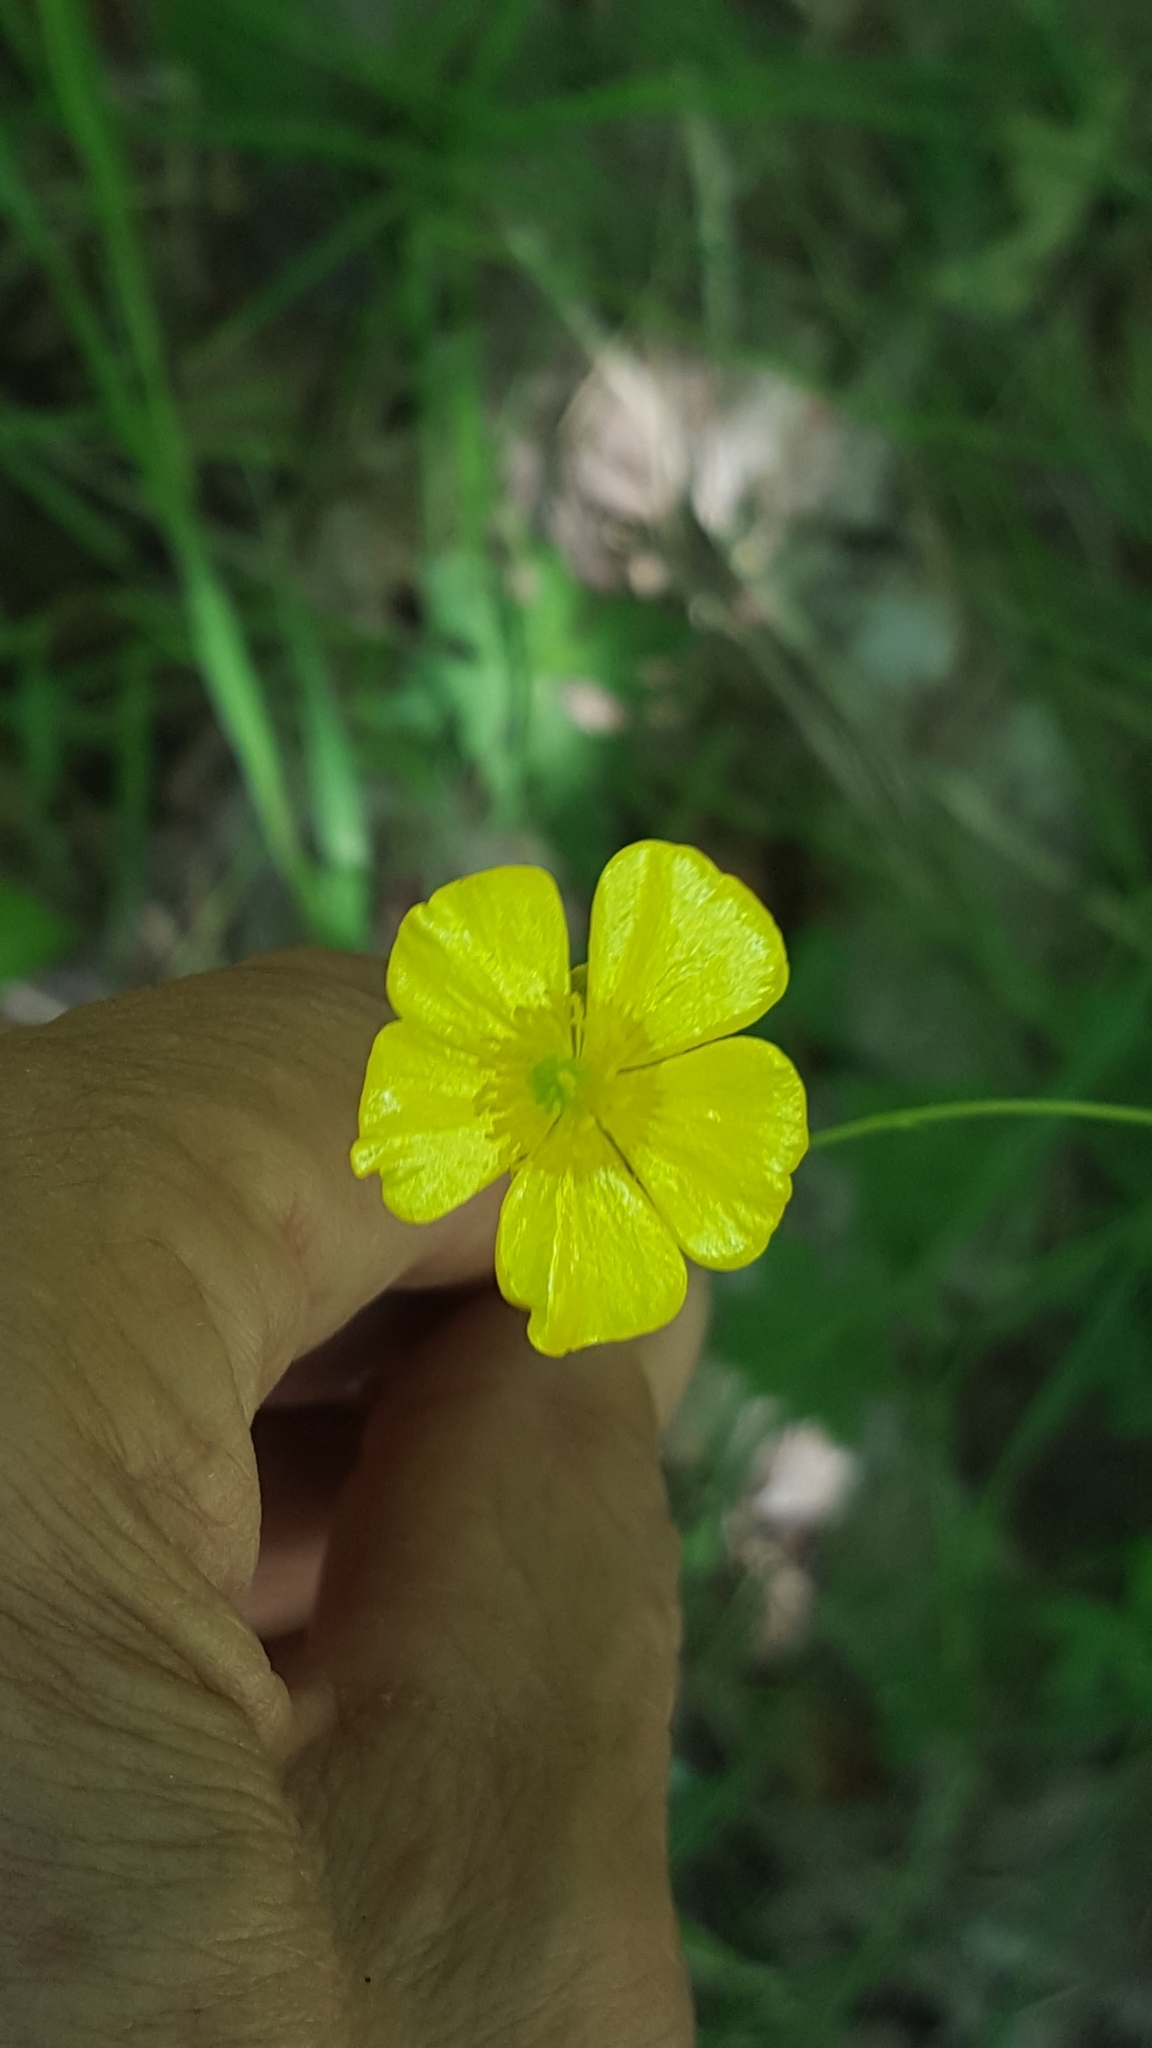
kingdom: Plantae
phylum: Tracheophyta
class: Magnoliopsida
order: Ranunculales
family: Ranunculaceae
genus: Ranunculus
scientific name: Ranunculus acris
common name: Meadow buttercup
